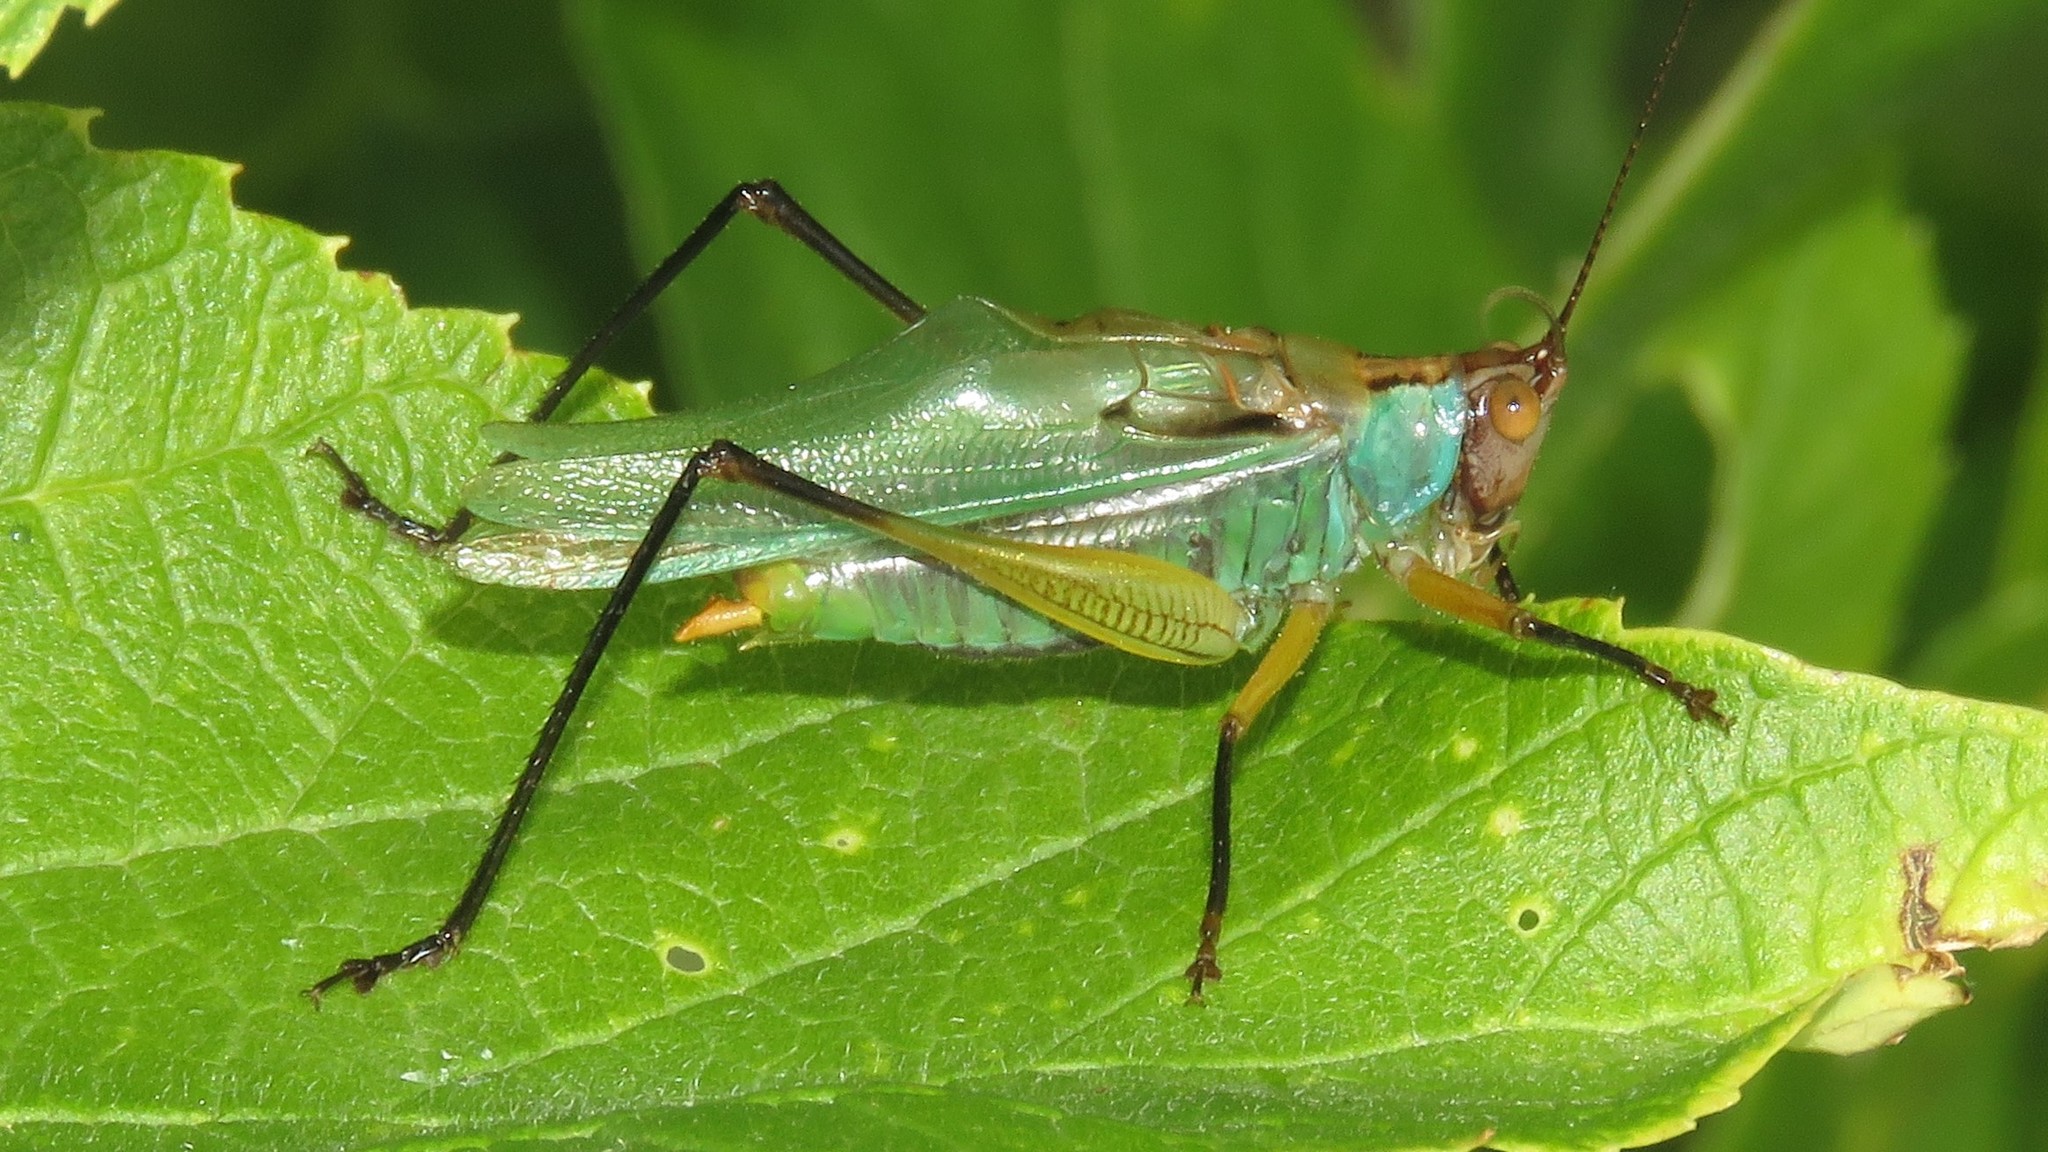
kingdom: Animalia
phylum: Arthropoda
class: Insecta
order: Orthoptera
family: Tettigoniidae
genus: Orchelimum
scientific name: Orchelimum nigripes
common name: Black-legged meadow katydid
